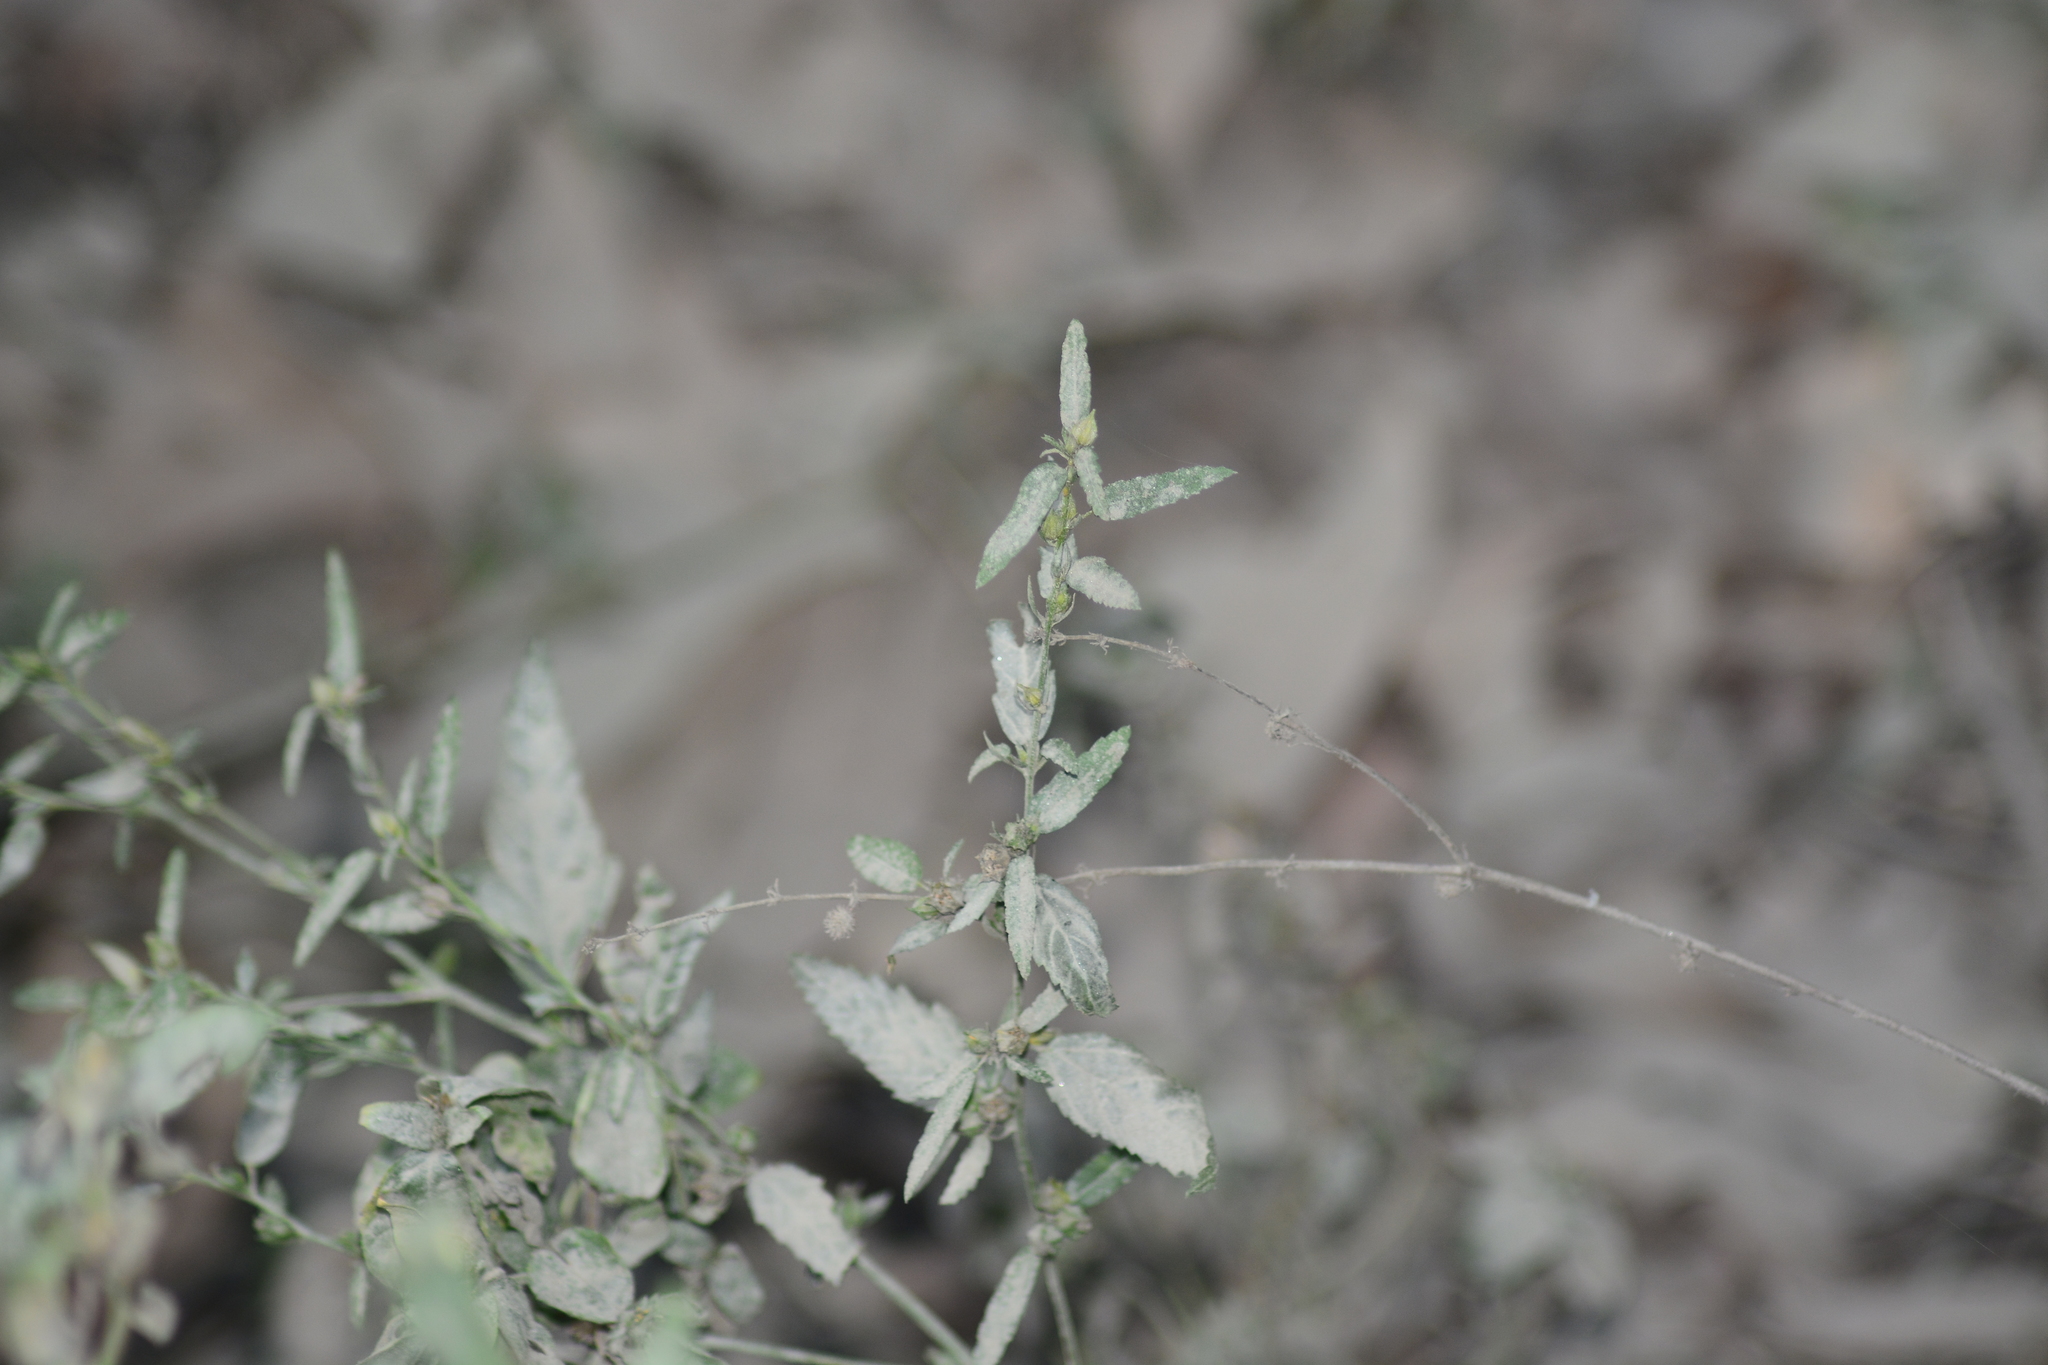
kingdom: Plantae
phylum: Tracheophyta
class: Magnoliopsida
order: Malvales
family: Malvaceae
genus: Sida
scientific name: Sida acuta
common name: Common wireweed
